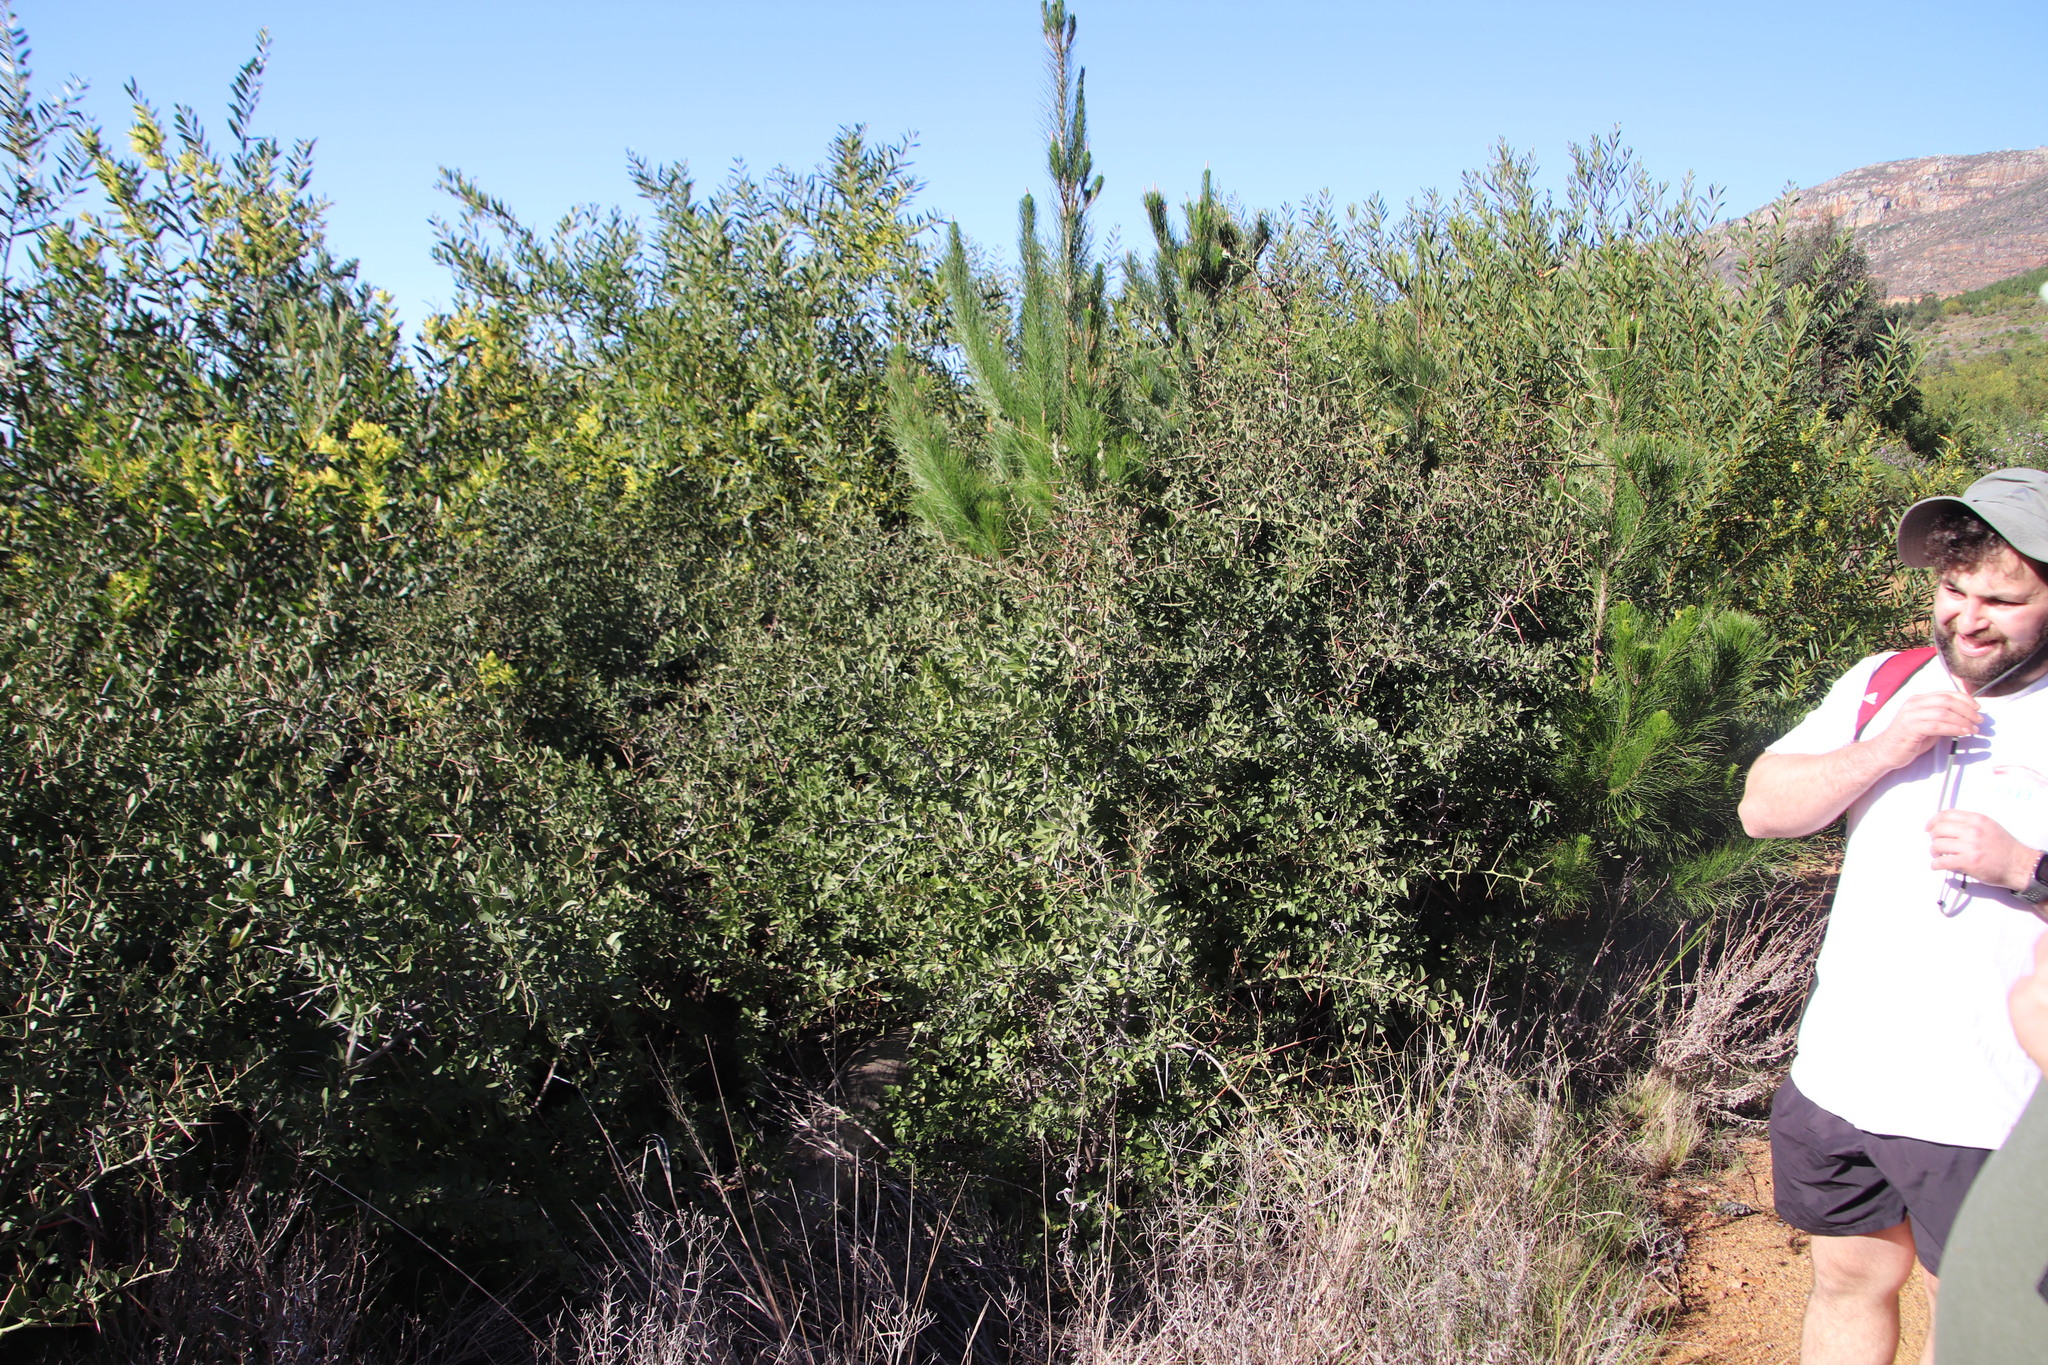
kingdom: Plantae
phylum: Tracheophyta
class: Magnoliopsida
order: Celastrales
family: Celastraceae
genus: Gymnosporia
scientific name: Gymnosporia buxifolia
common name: Common spike-thorn
